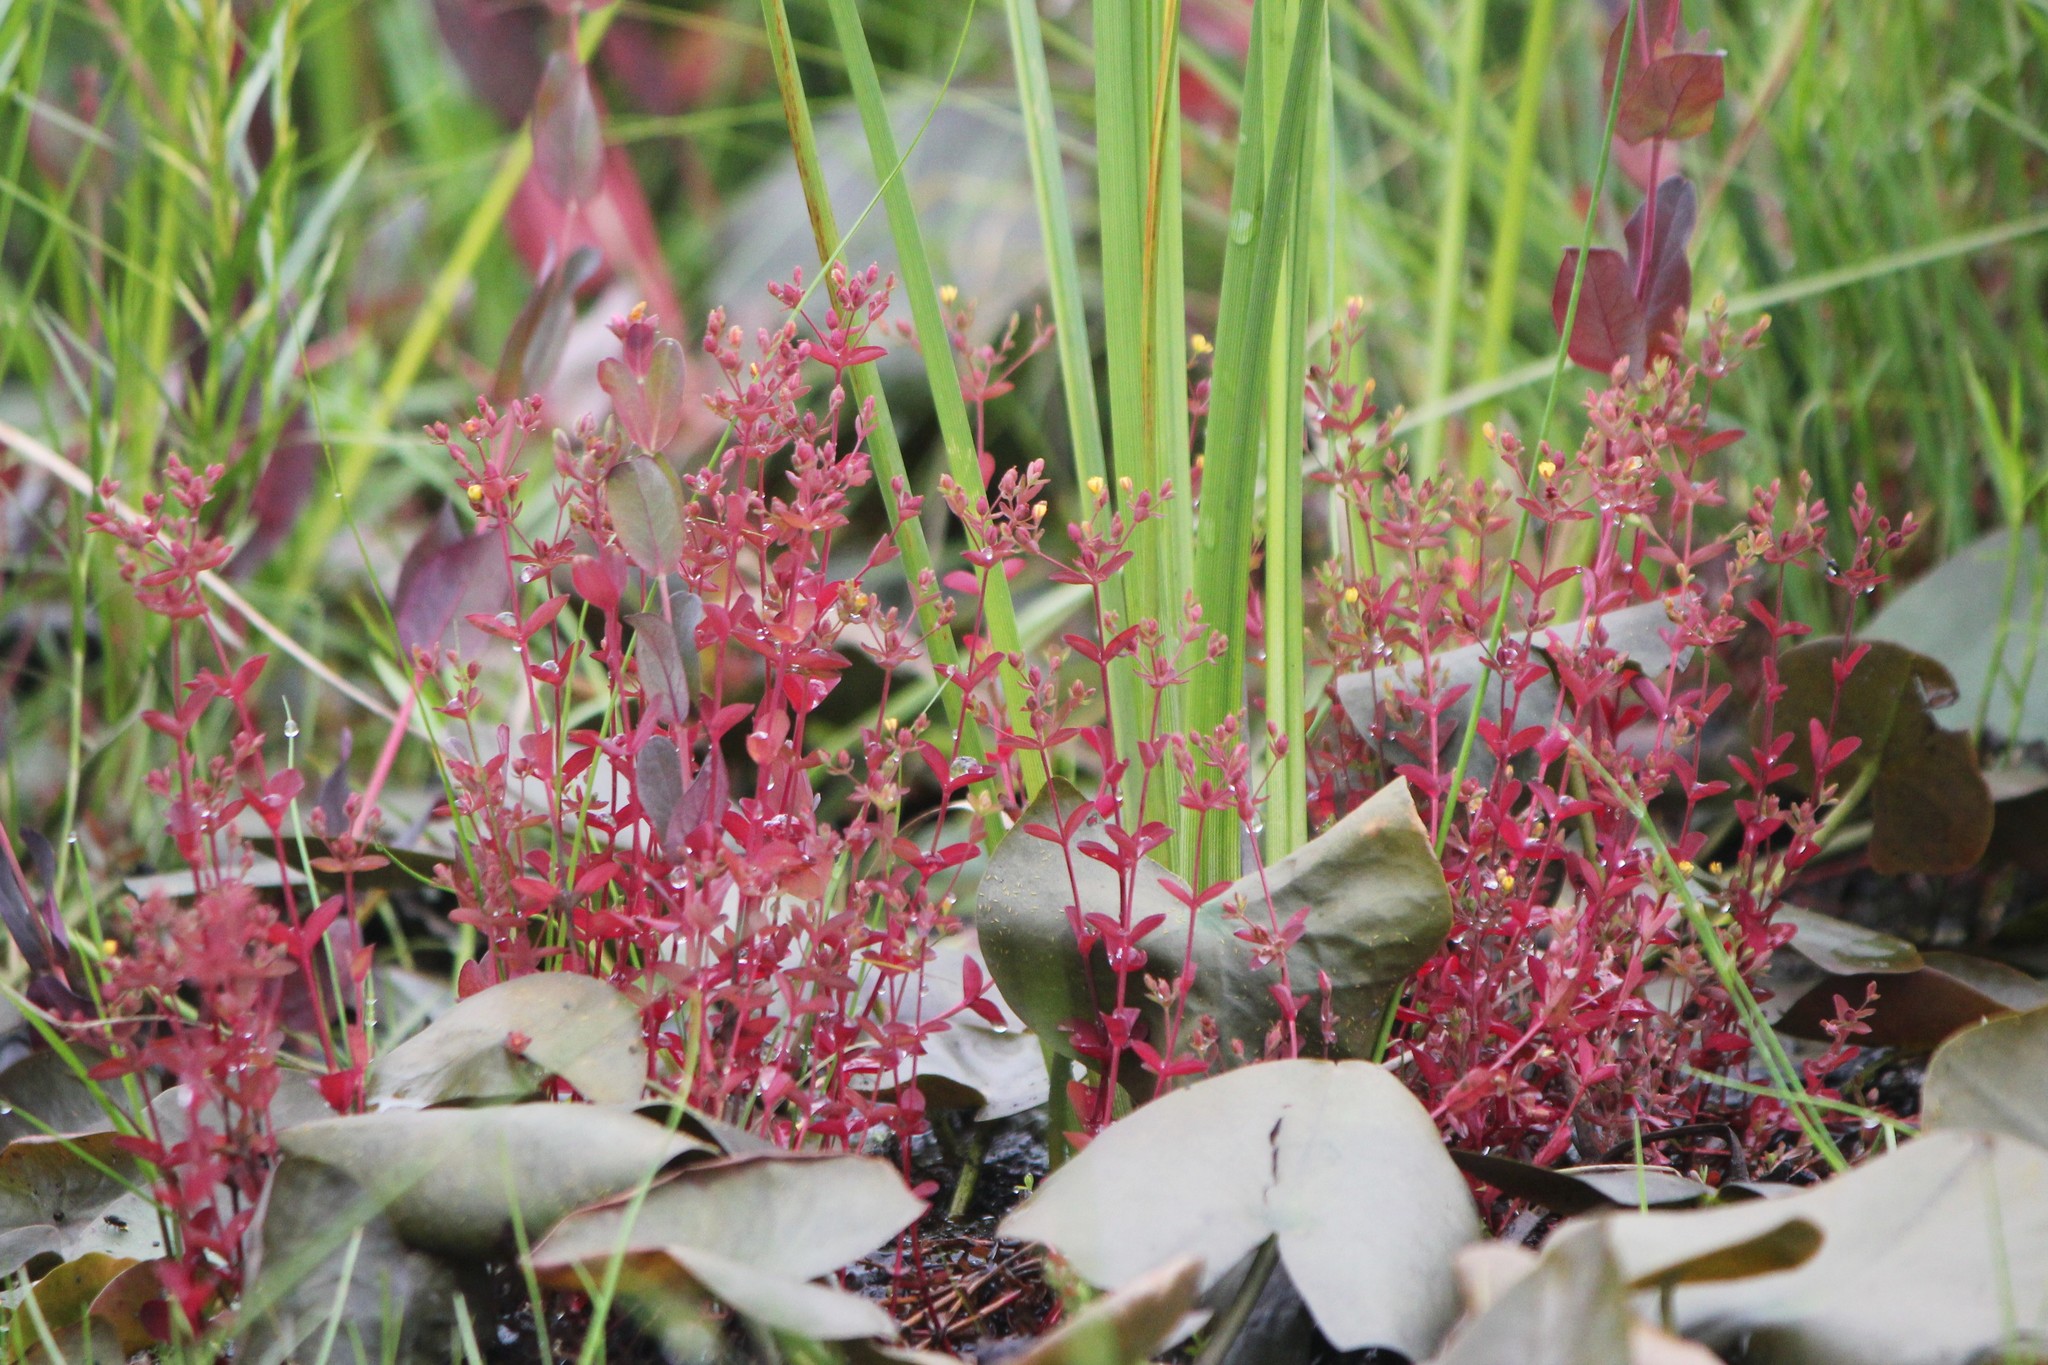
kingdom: Plantae
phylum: Tracheophyta
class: Magnoliopsida
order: Malpighiales
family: Hypericaceae
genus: Hypericum
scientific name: Hypericum boreale
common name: Northern bog st. john's-wort
